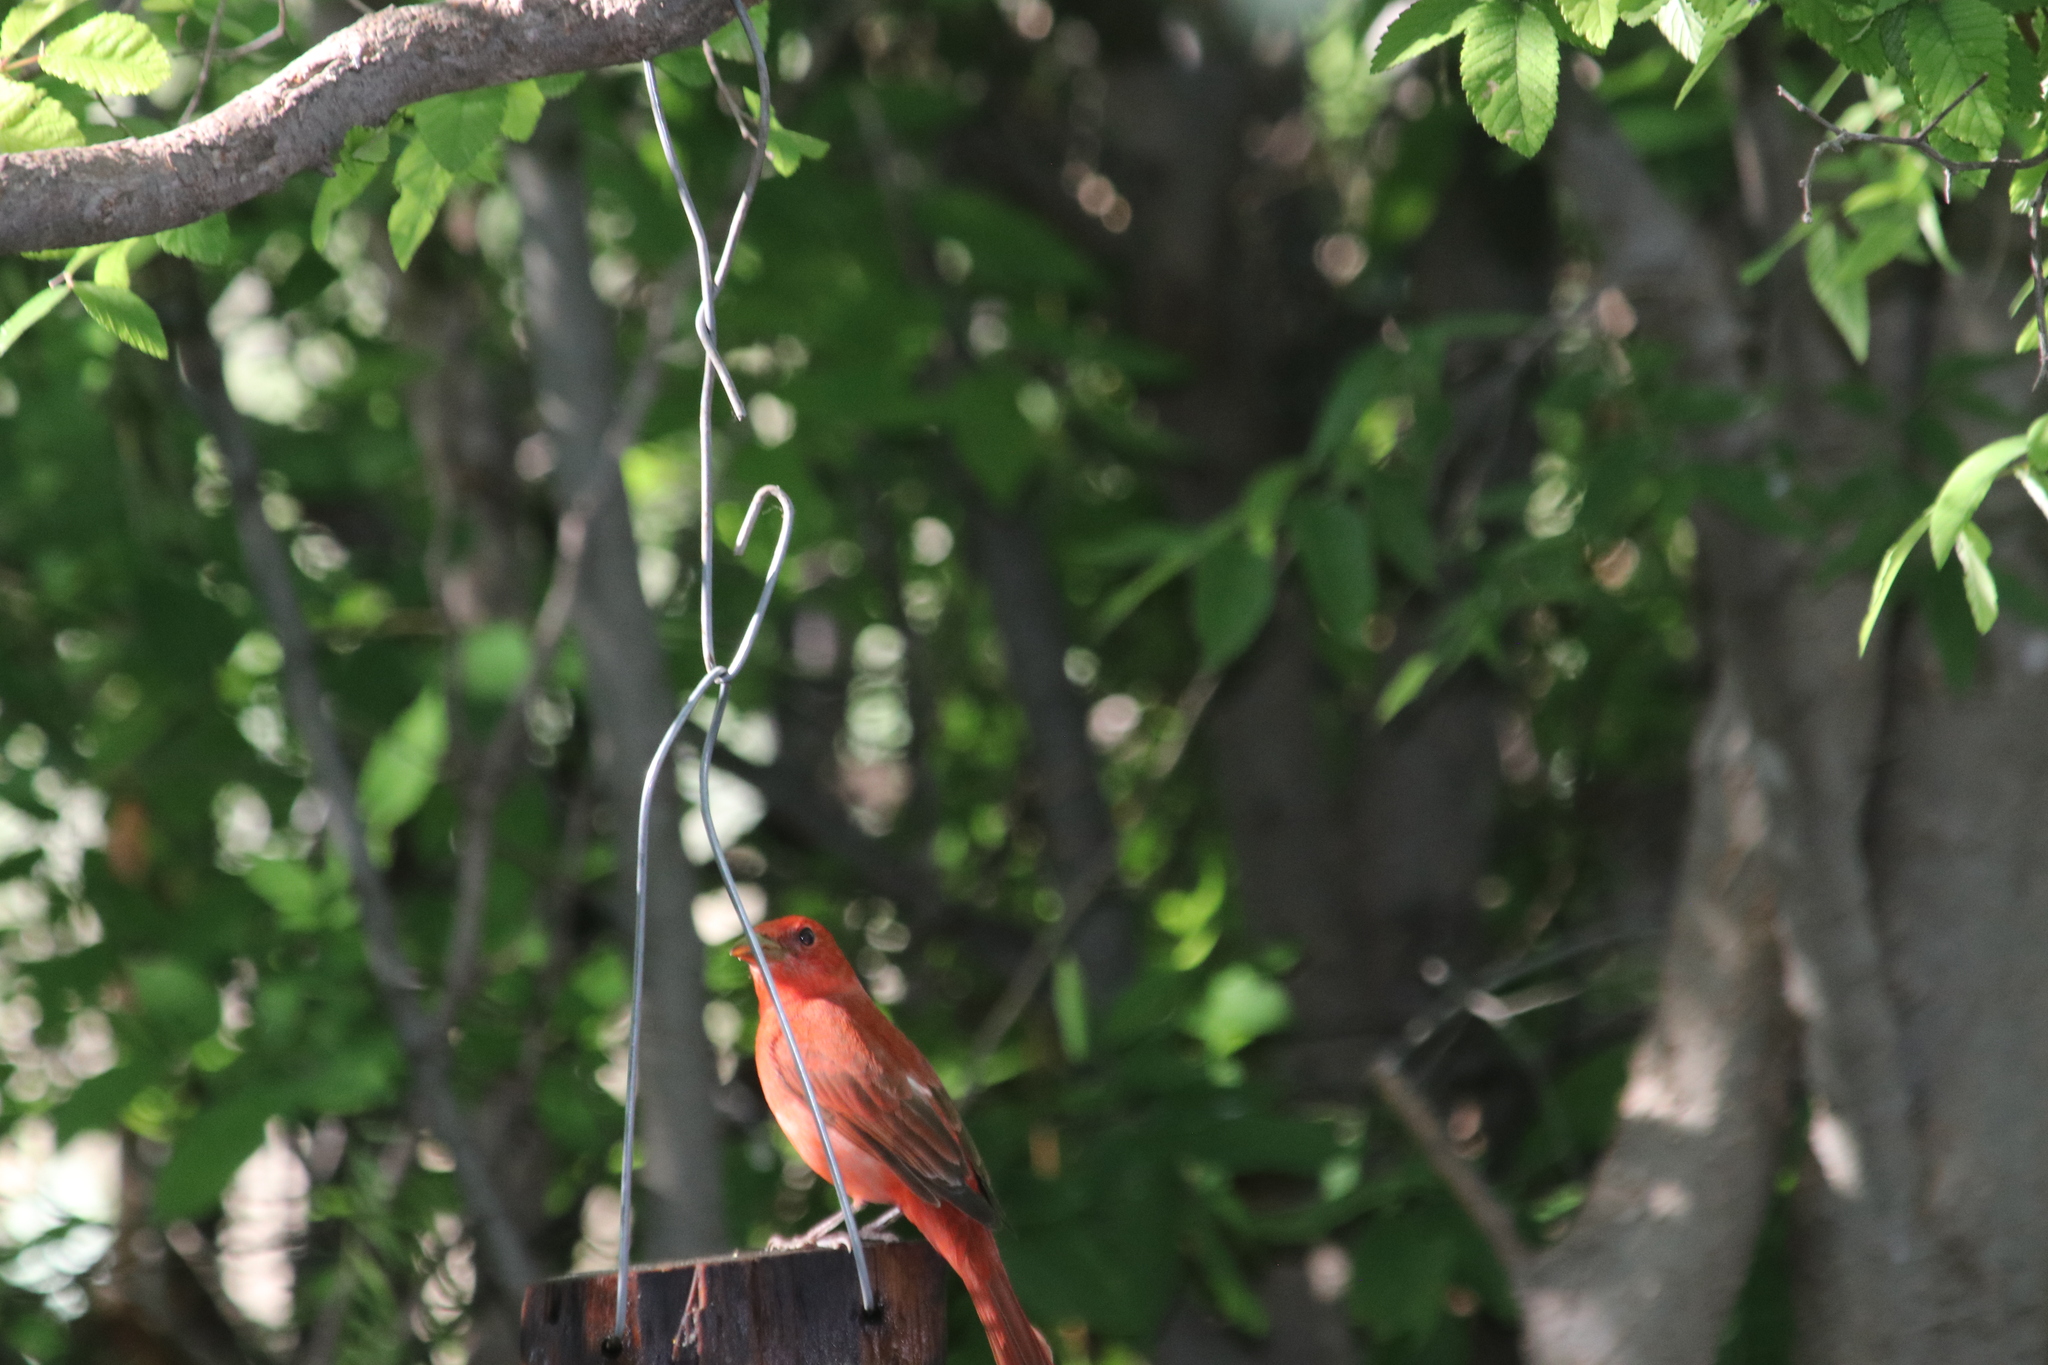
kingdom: Animalia
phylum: Chordata
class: Aves
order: Passeriformes
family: Cardinalidae
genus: Piranga
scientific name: Piranga rubra
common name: Summer tanager
